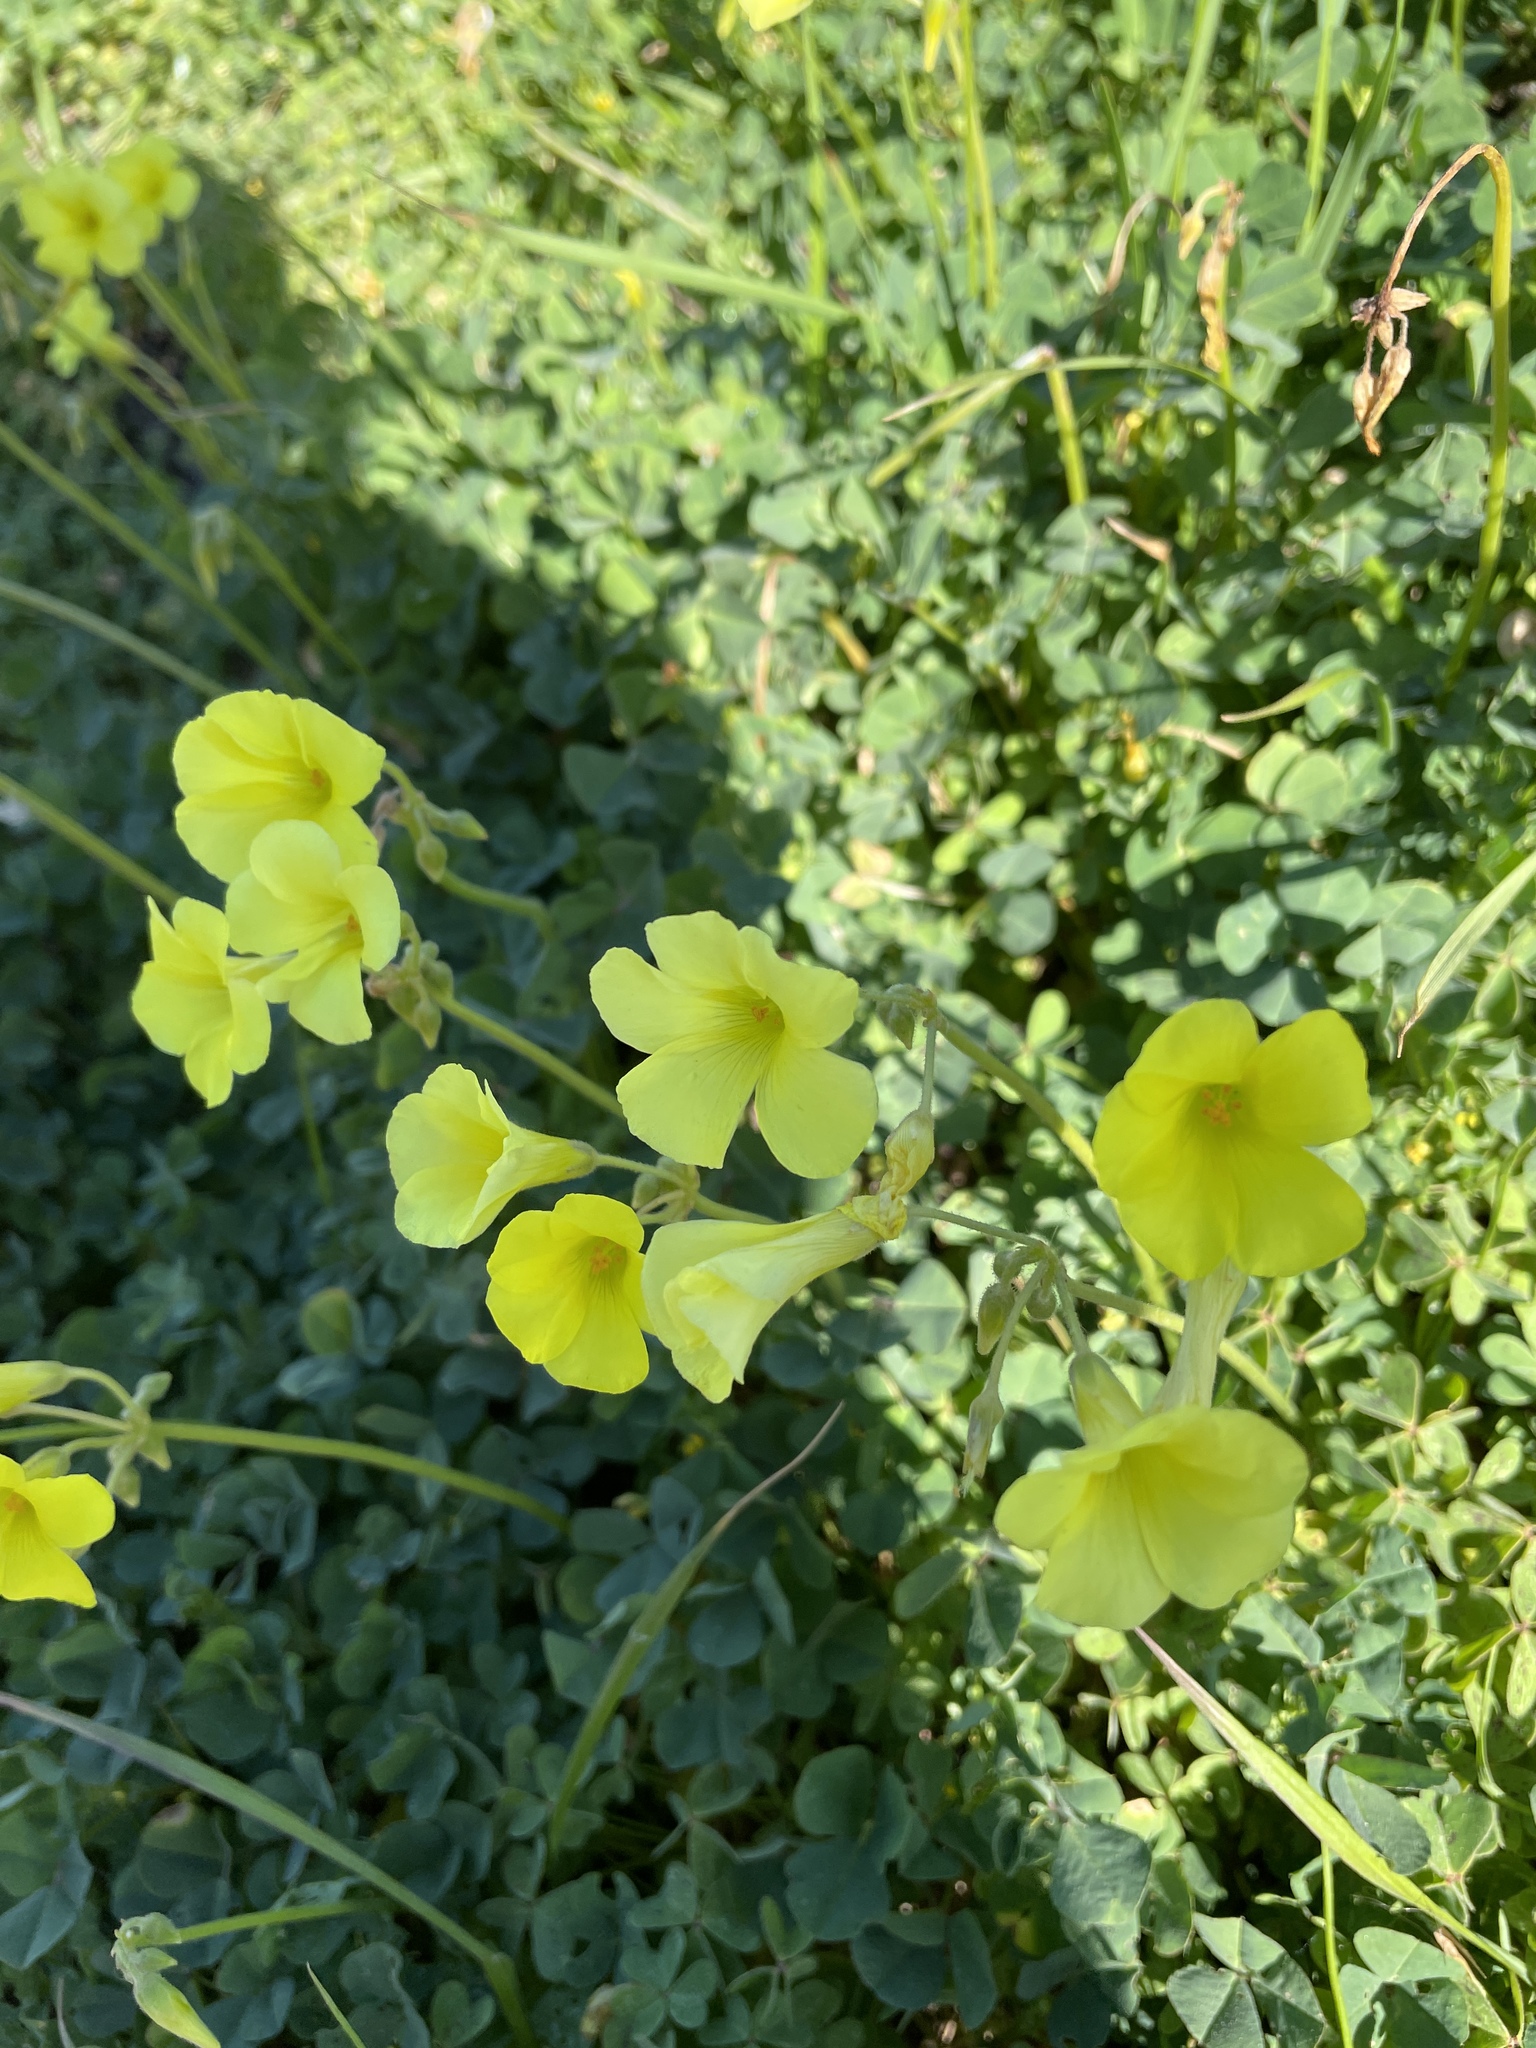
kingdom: Plantae
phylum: Tracheophyta
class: Magnoliopsida
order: Oxalidales
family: Oxalidaceae
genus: Oxalis
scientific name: Oxalis pes-caprae
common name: Bermuda-buttercup
